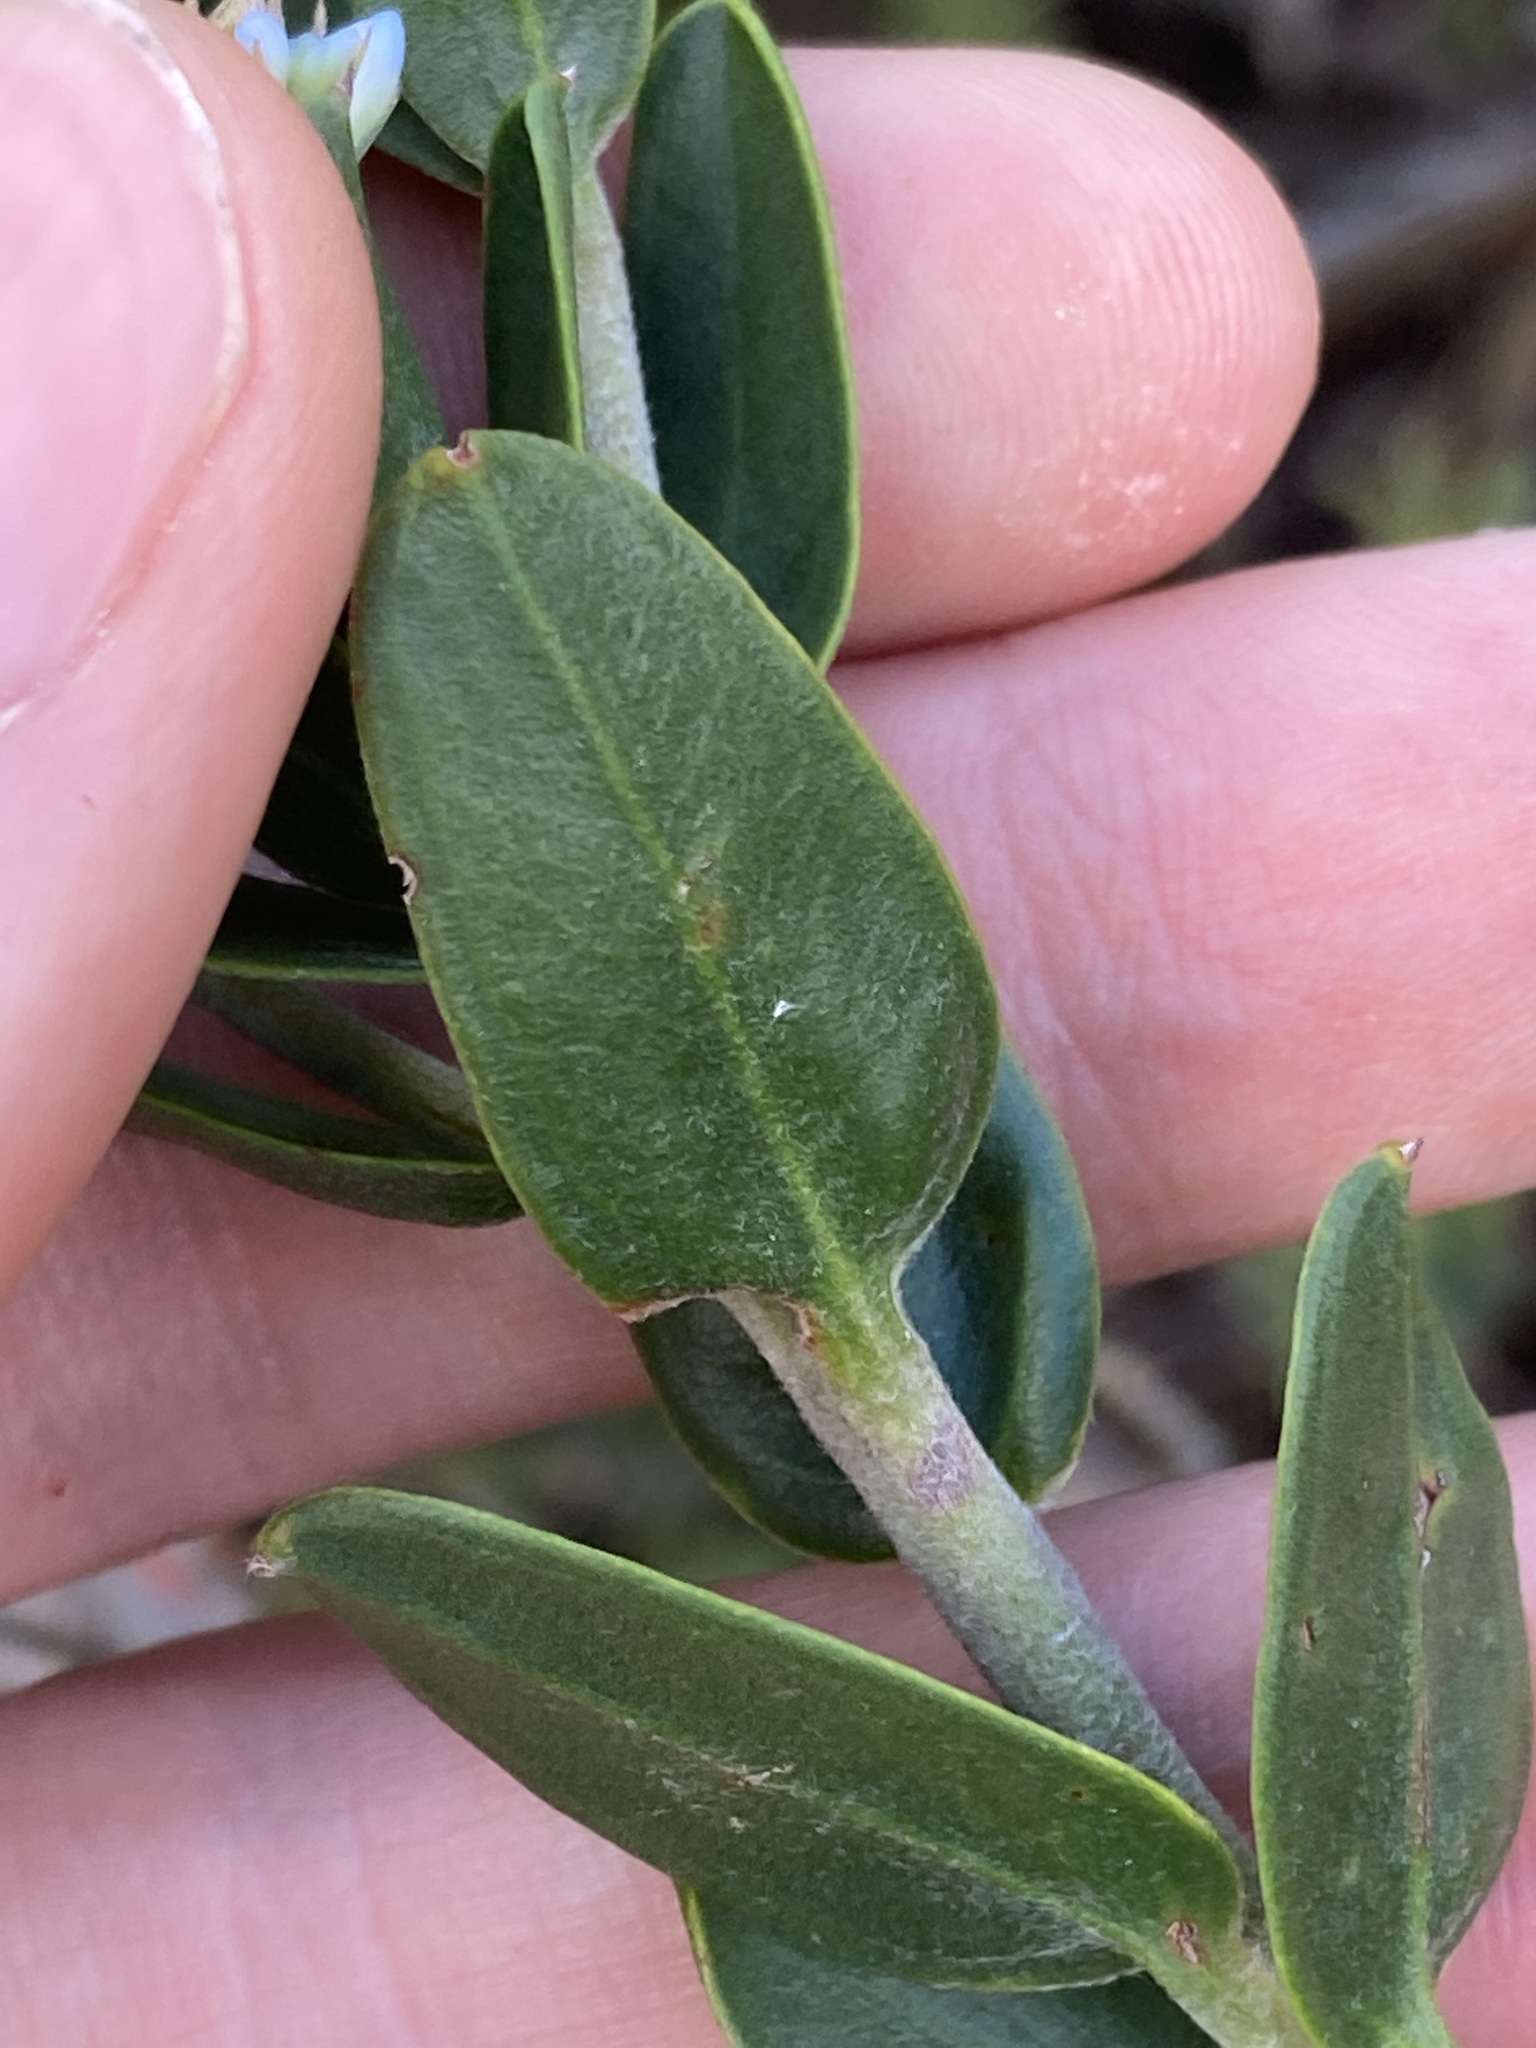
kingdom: Plantae
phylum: Tracheophyta
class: Magnoliopsida
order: Proteales
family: Proteaceae
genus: Conospermum
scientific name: Conospermum nervosum
